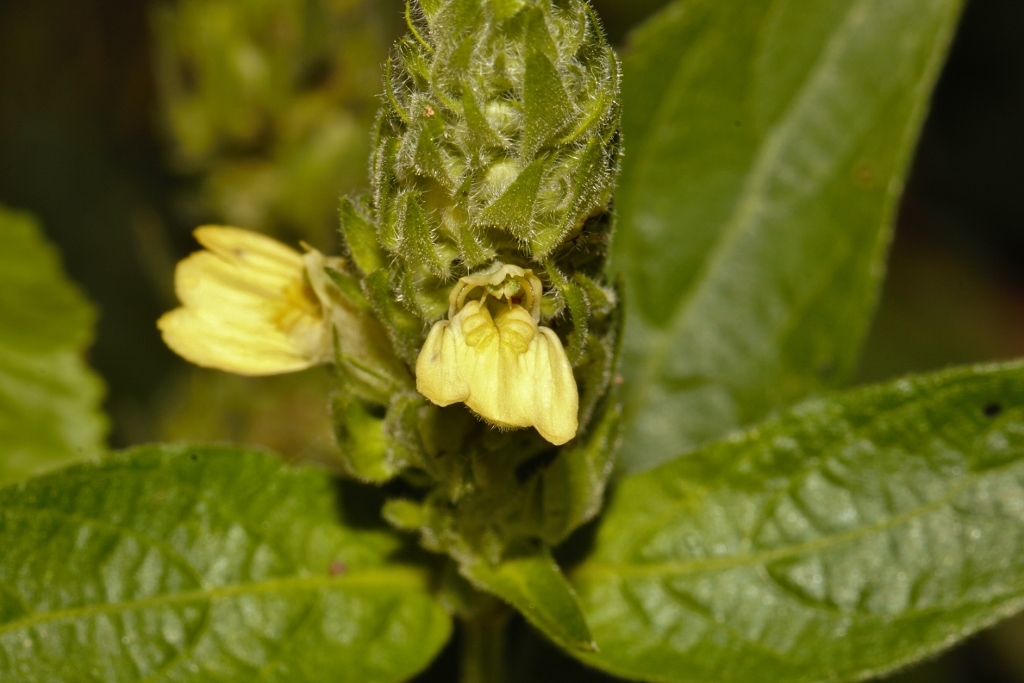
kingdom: Plantae
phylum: Tracheophyta
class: Magnoliopsida
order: Lamiales
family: Acanthaceae
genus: Justicia
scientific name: Justicia flava
